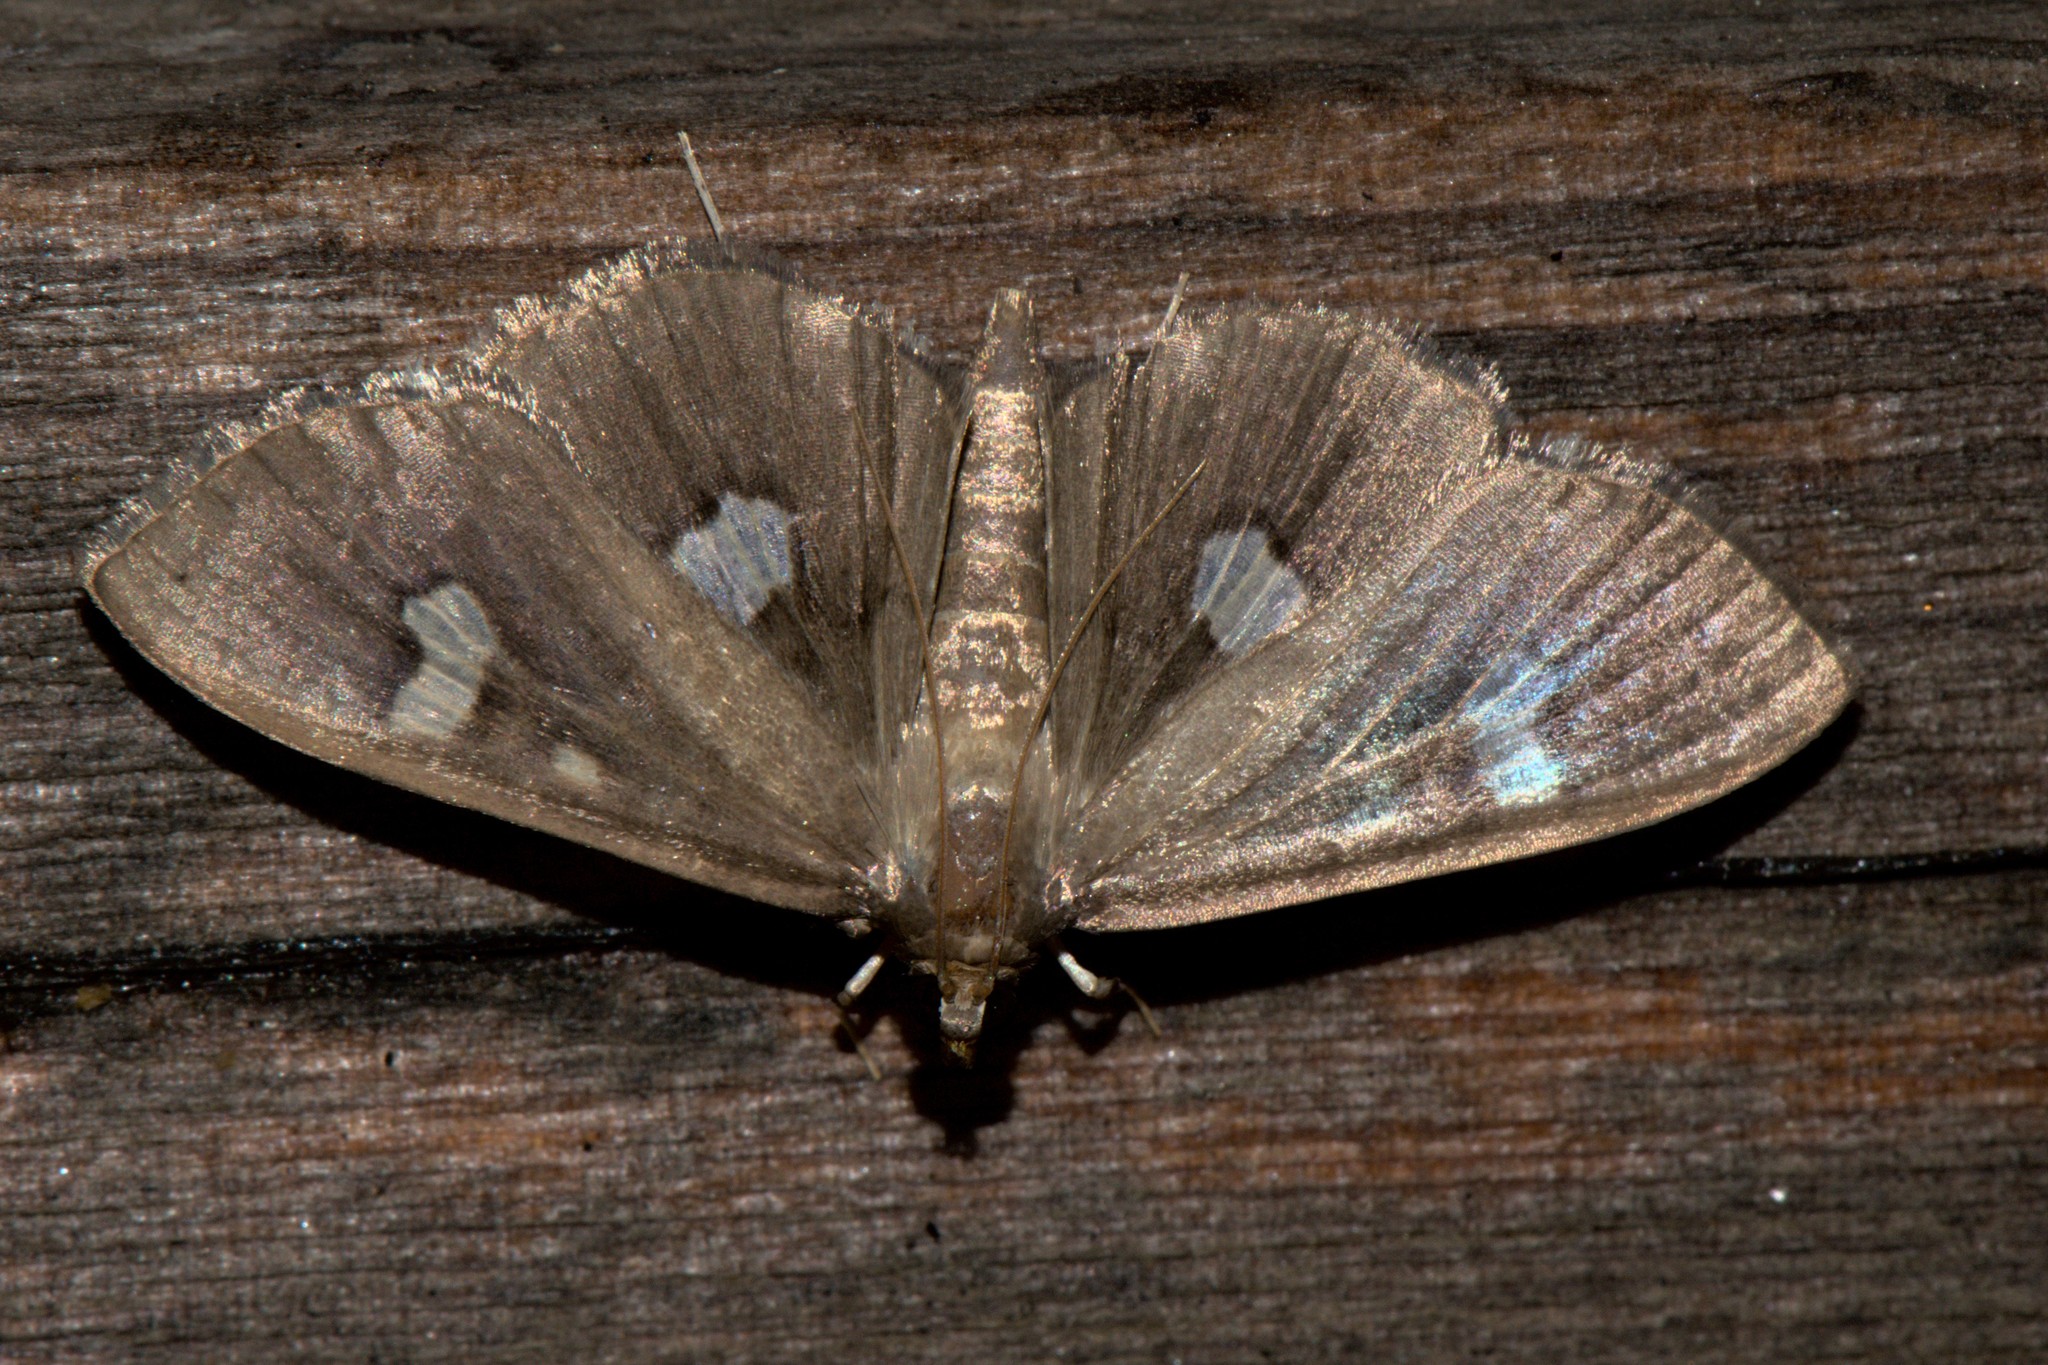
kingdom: Animalia
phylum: Arthropoda
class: Insecta
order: Lepidoptera
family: Crambidae
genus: Nagiella
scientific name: Nagiella quadrimaculalis
